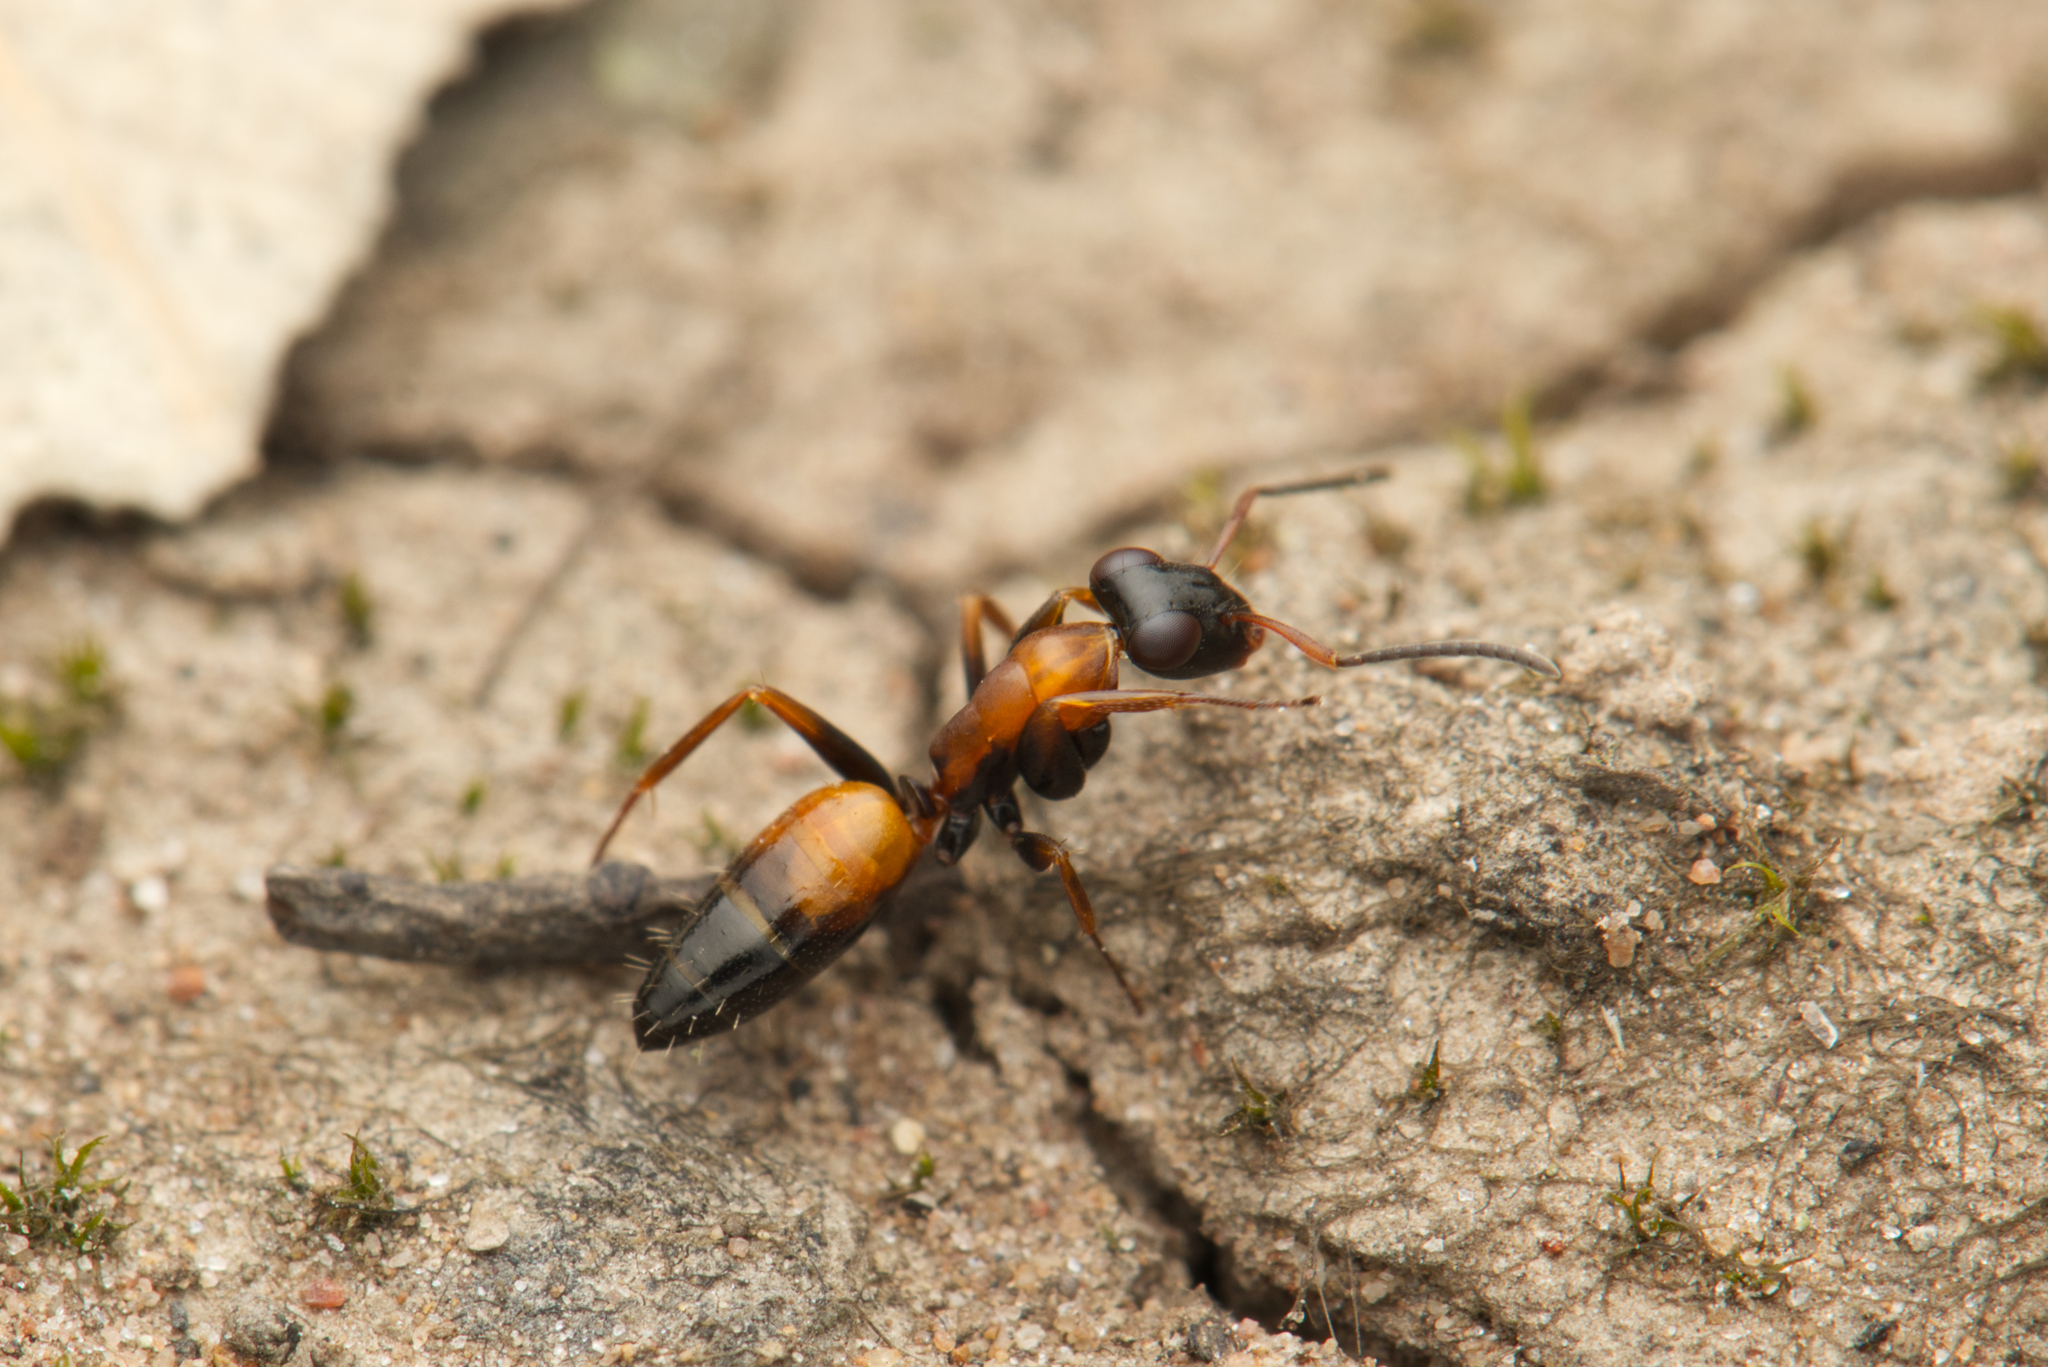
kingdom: Animalia
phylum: Arthropoda
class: Insecta
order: Hymenoptera
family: Formicidae
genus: Opisthopsis
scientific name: Opisthopsis pictus
